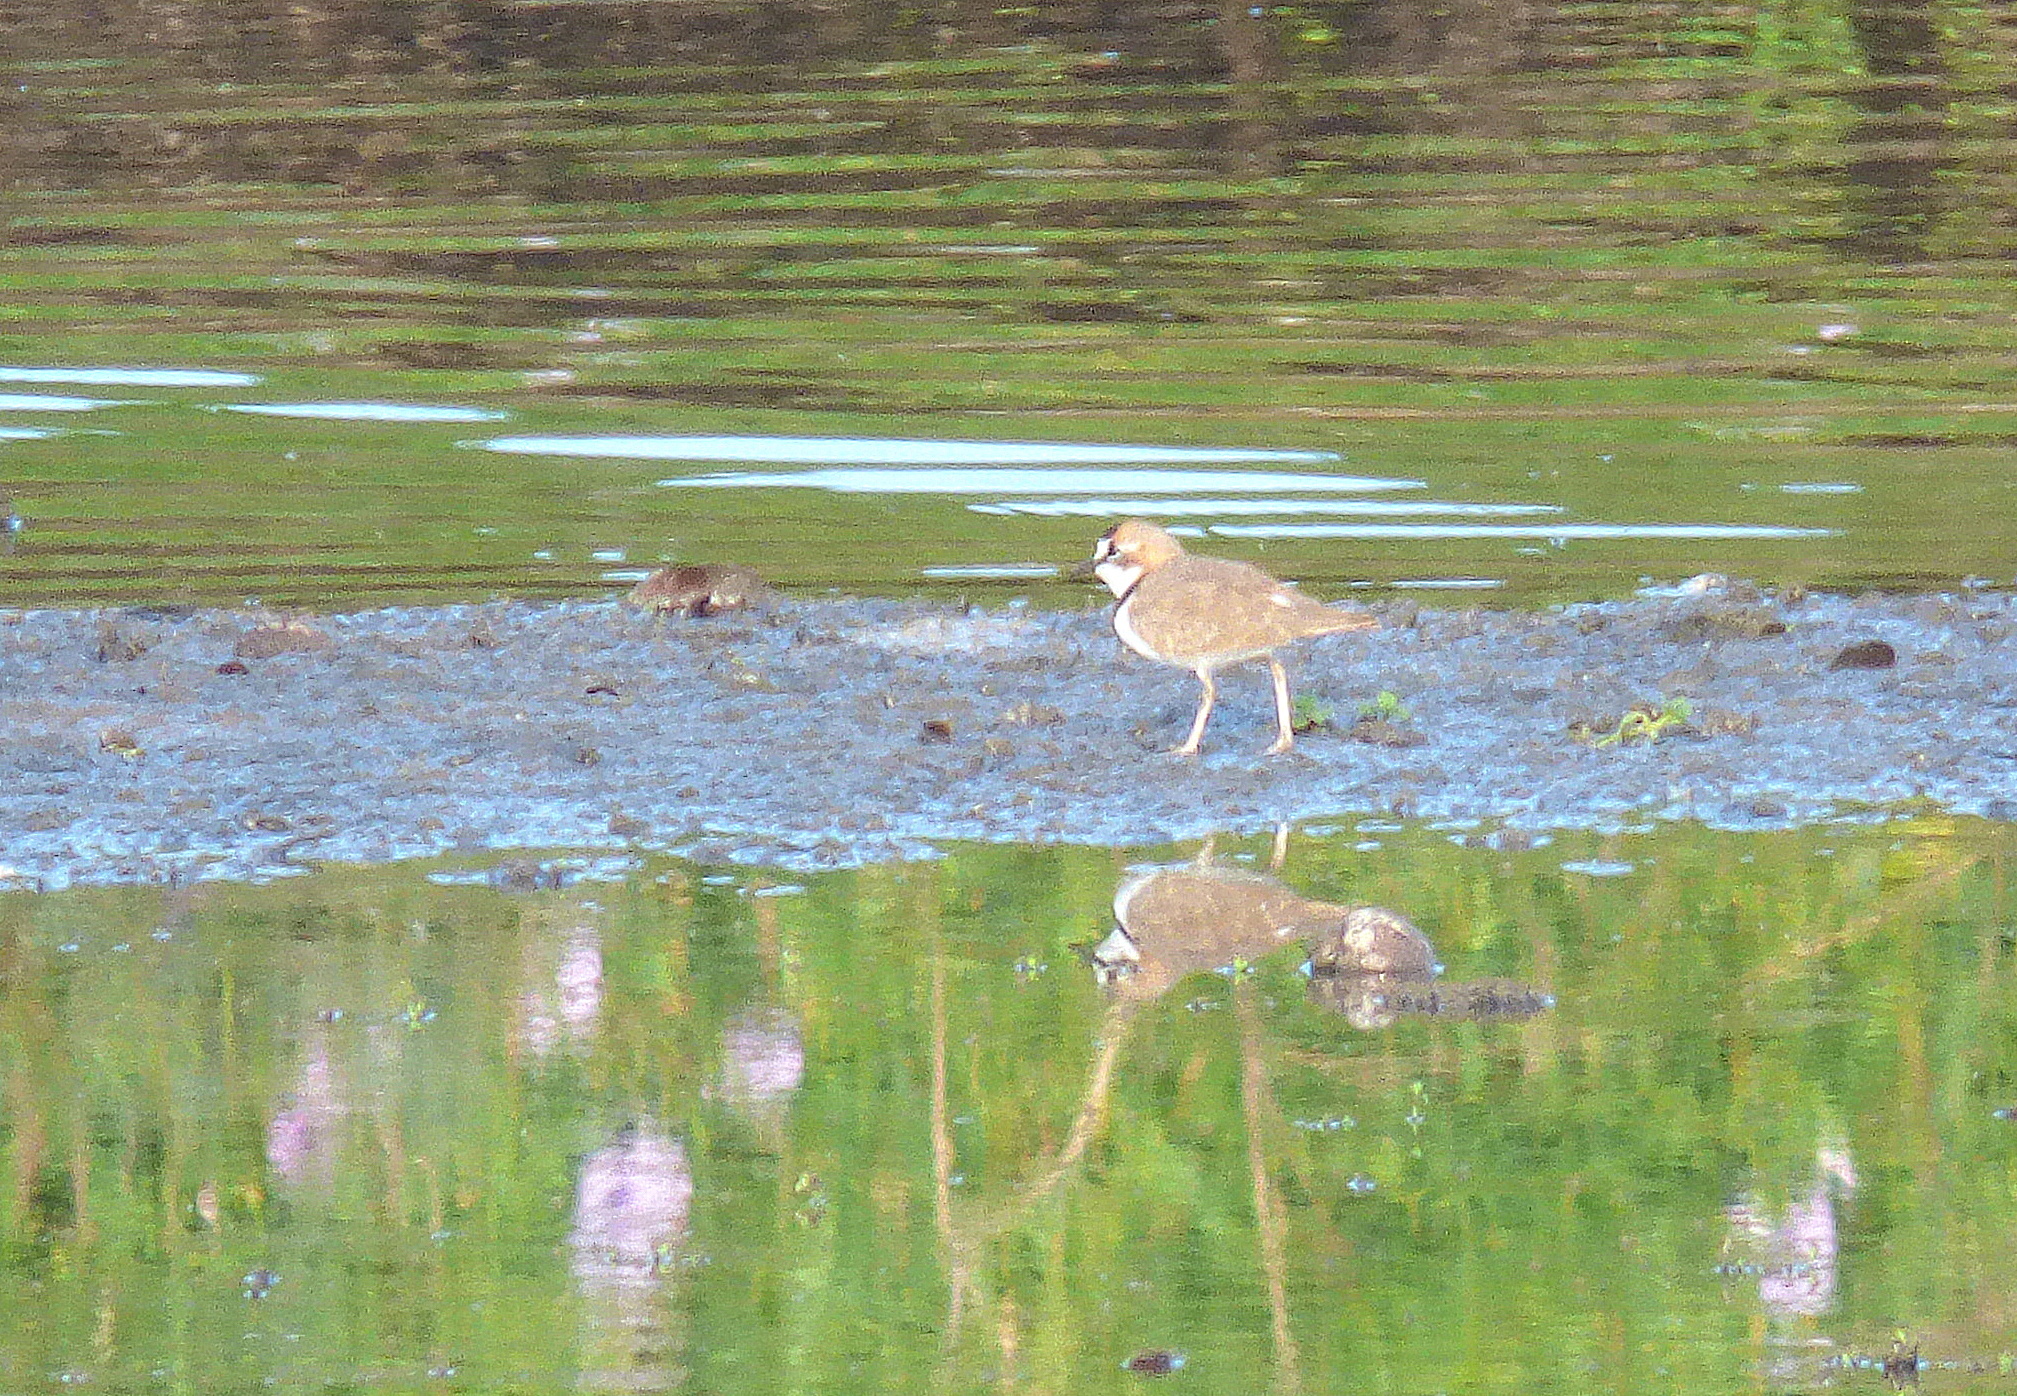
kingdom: Animalia
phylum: Chordata
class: Aves
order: Charadriiformes
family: Charadriidae
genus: Anarhynchus
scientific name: Anarhynchus
